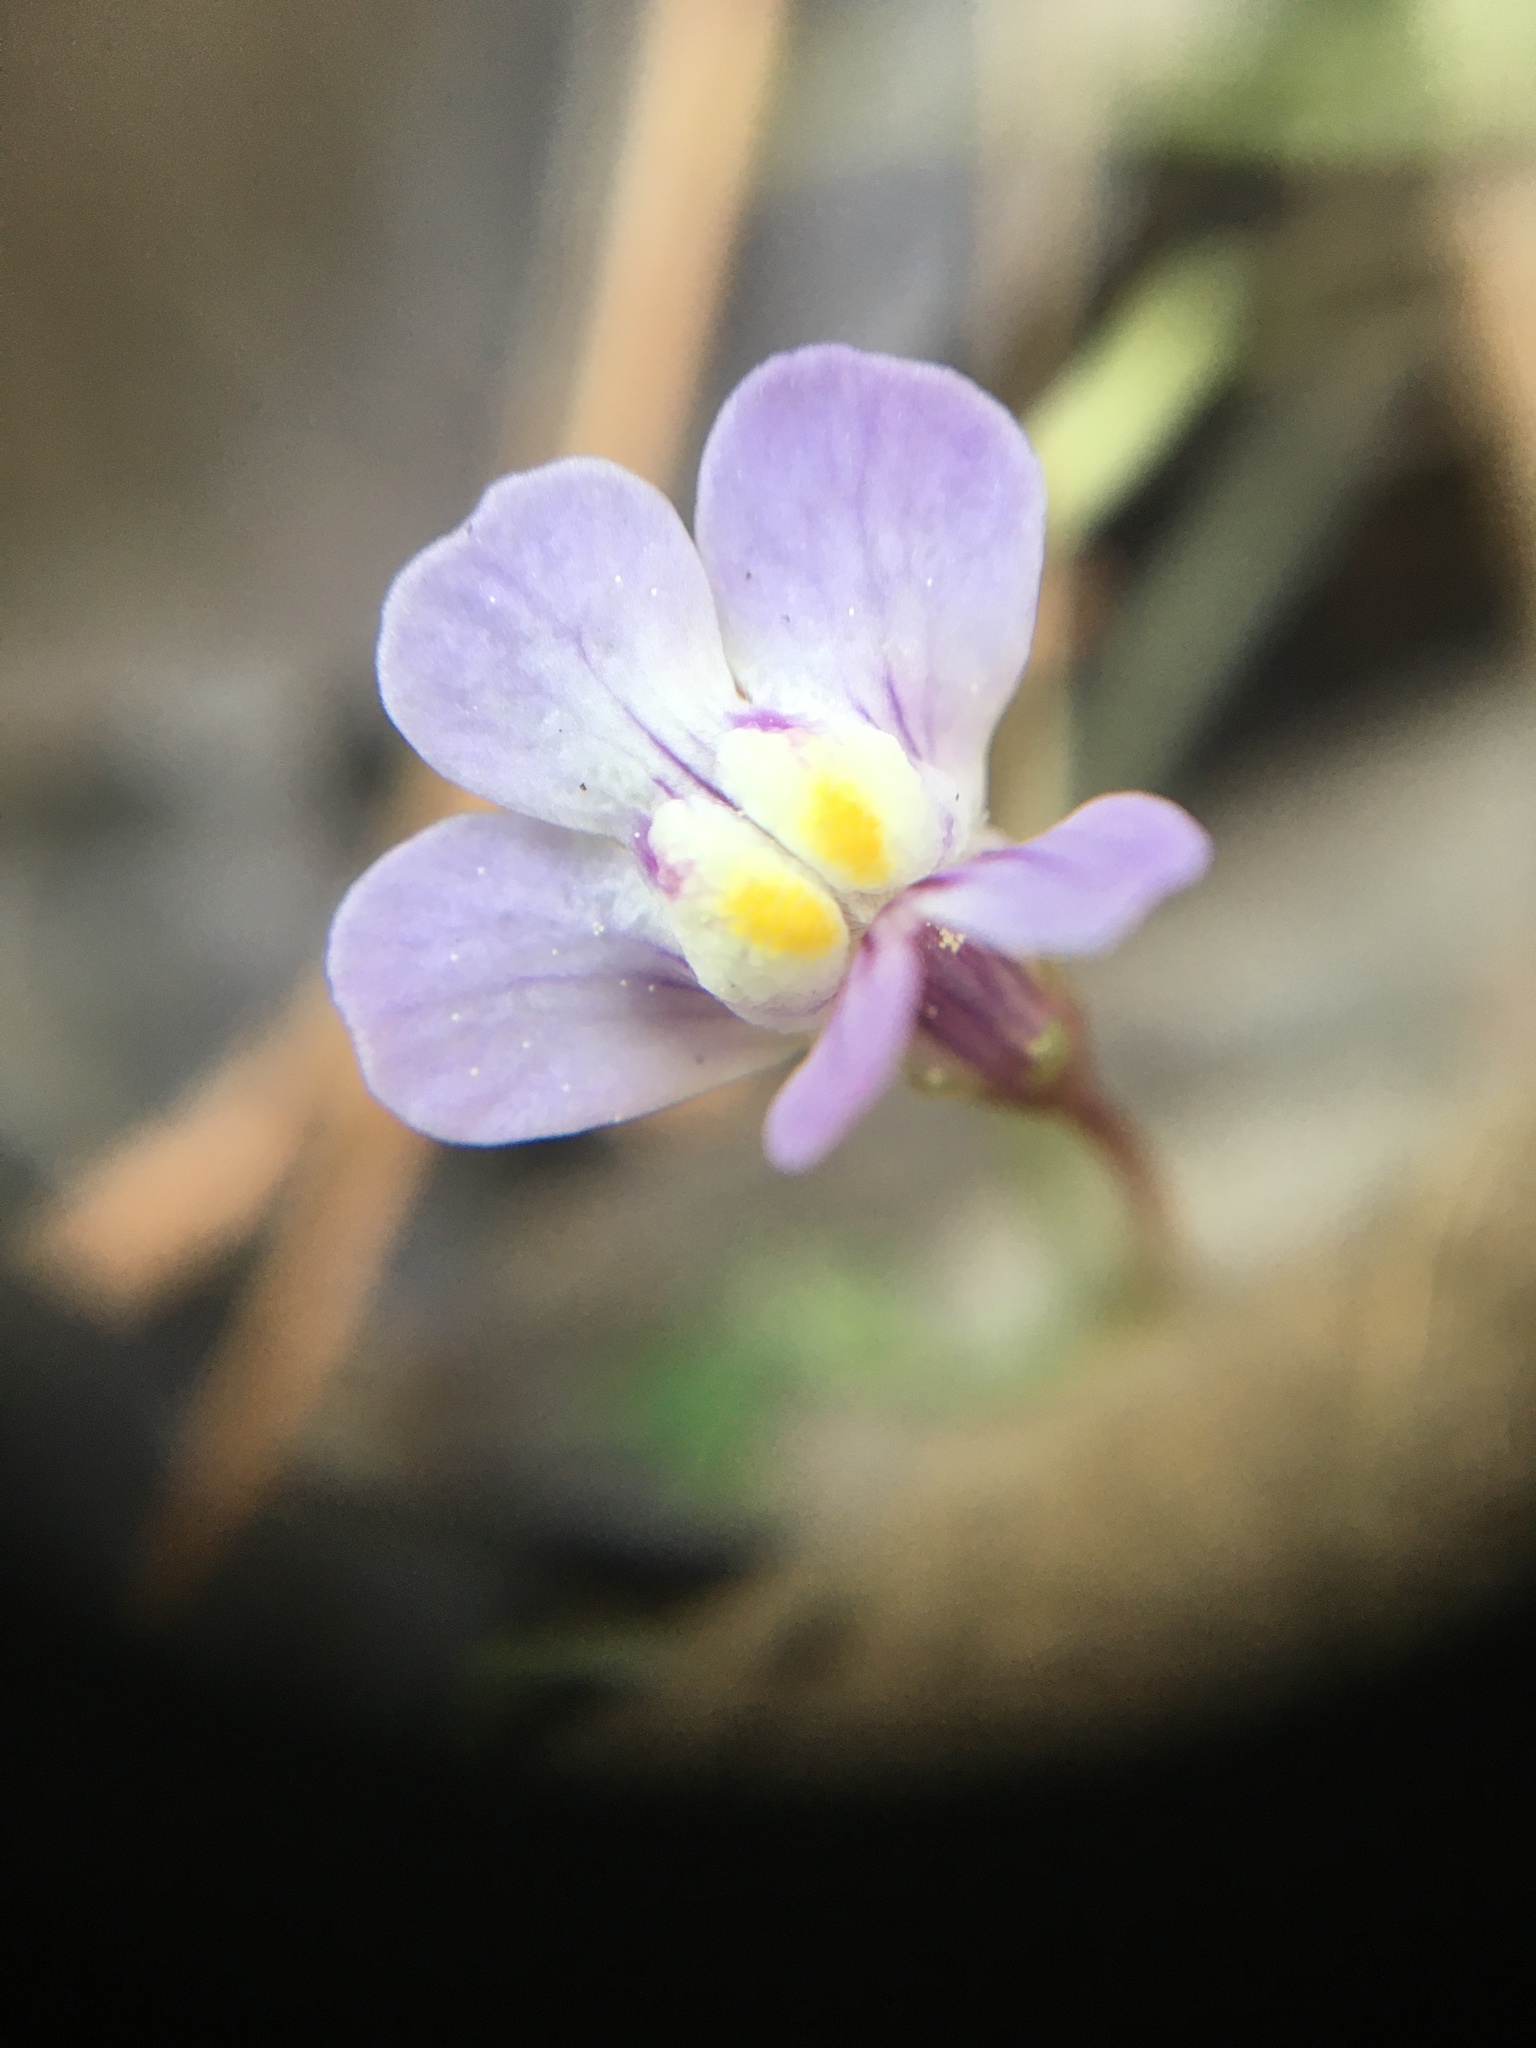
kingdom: Plantae
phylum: Tracheophyta
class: Magnoliopsida
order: Lamiales
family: Plantaginaceae
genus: Cymbalaria
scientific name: Cymbalaria muralis
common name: Ivy-leaved toadflax
